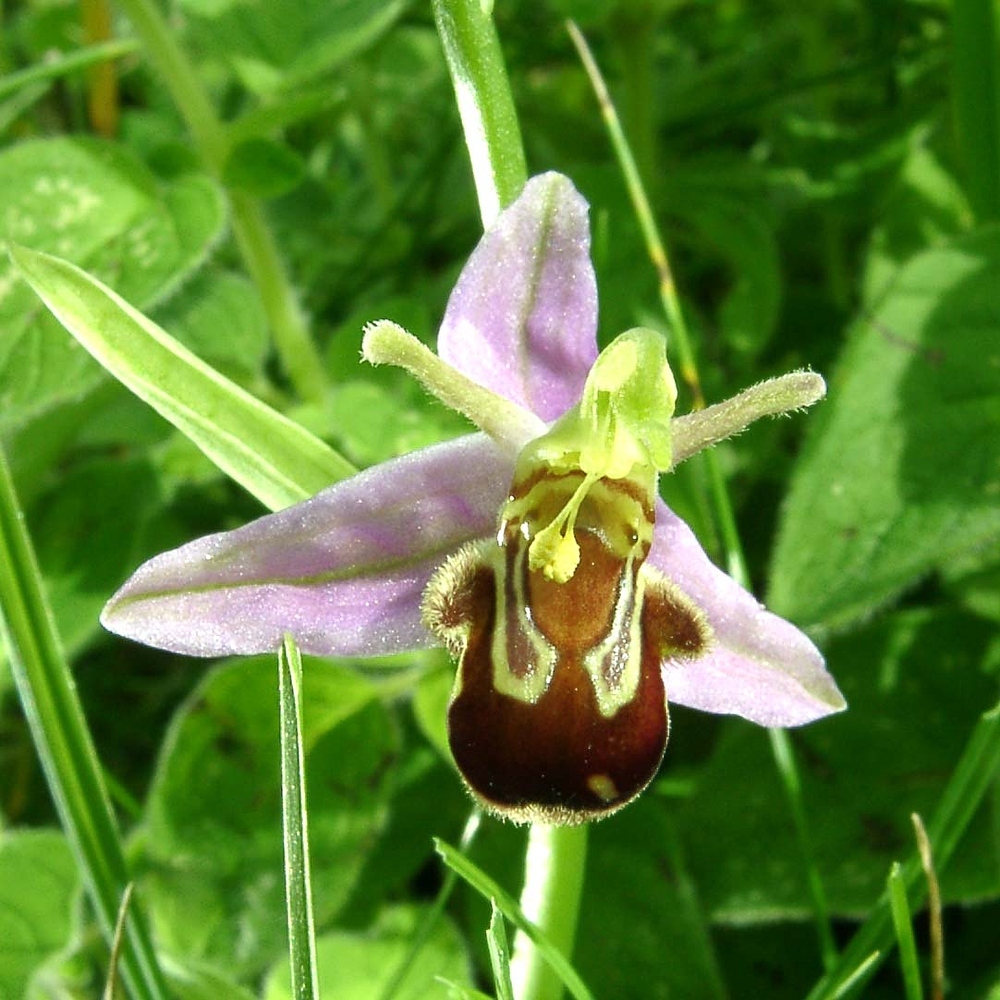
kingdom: Plantae
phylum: Tracheophyta
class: Liliopsida
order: Asparagales
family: Orchidaceae
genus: Ophrys
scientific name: Ophrys apifera
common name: Bee orchid
